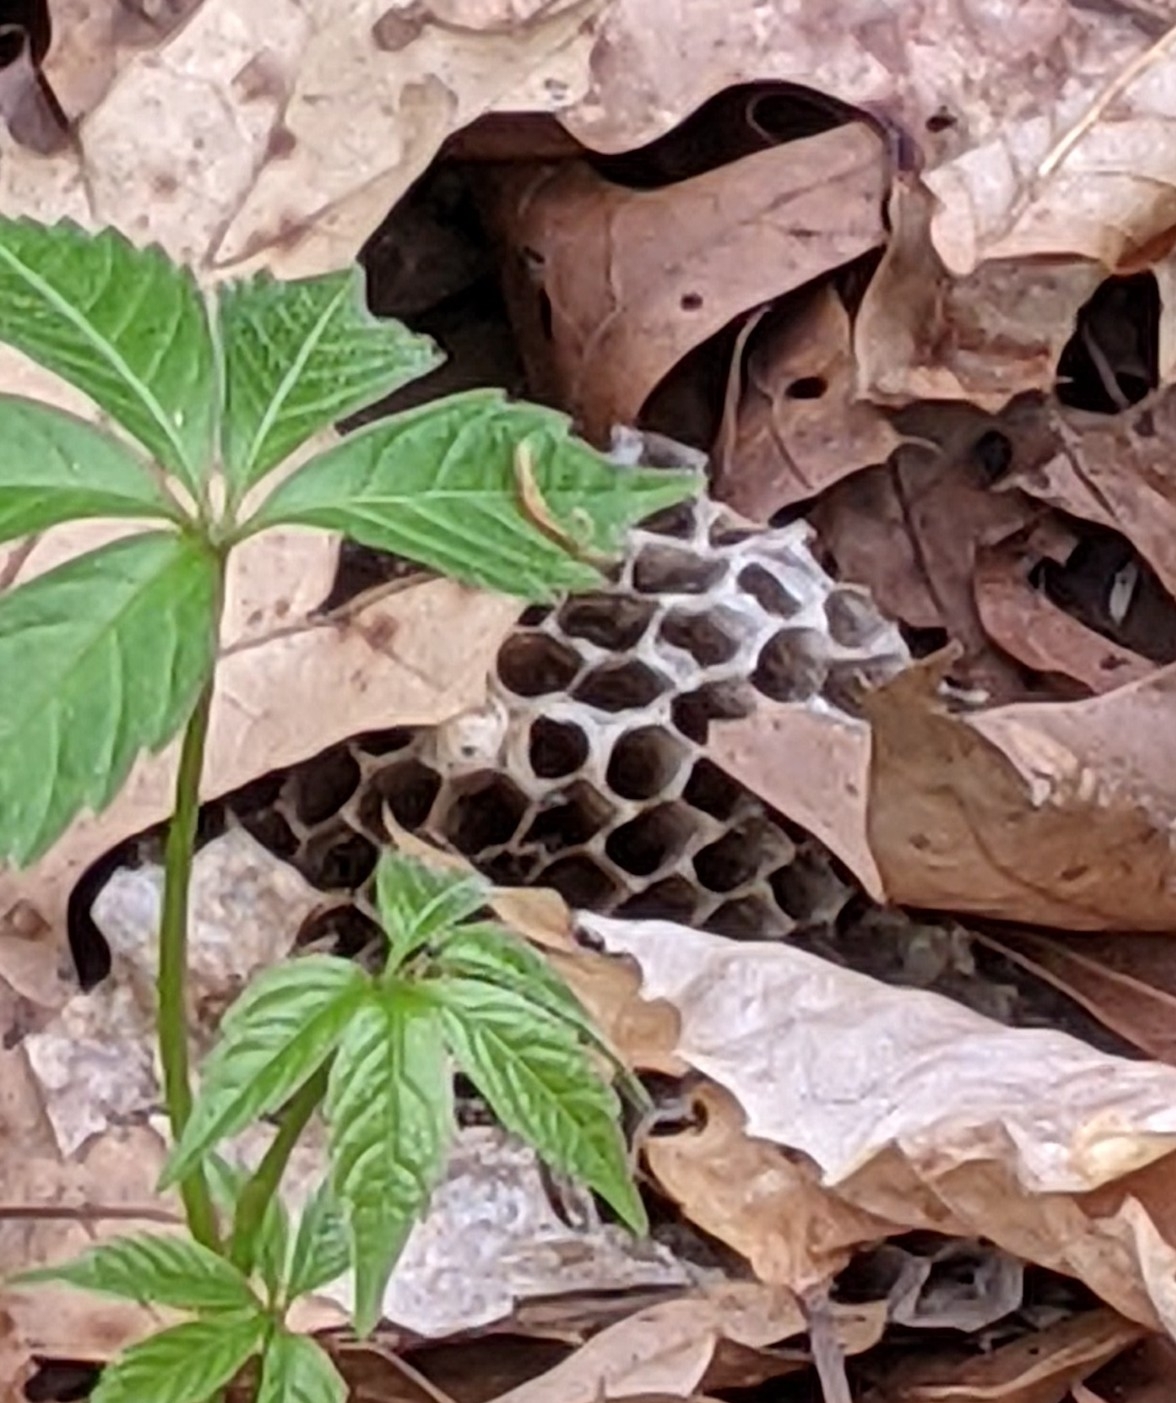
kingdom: Animalia
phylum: Arthropoda
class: Insecta
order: Hymenoptera
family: Eumenidae
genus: Polistes
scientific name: Polistes
